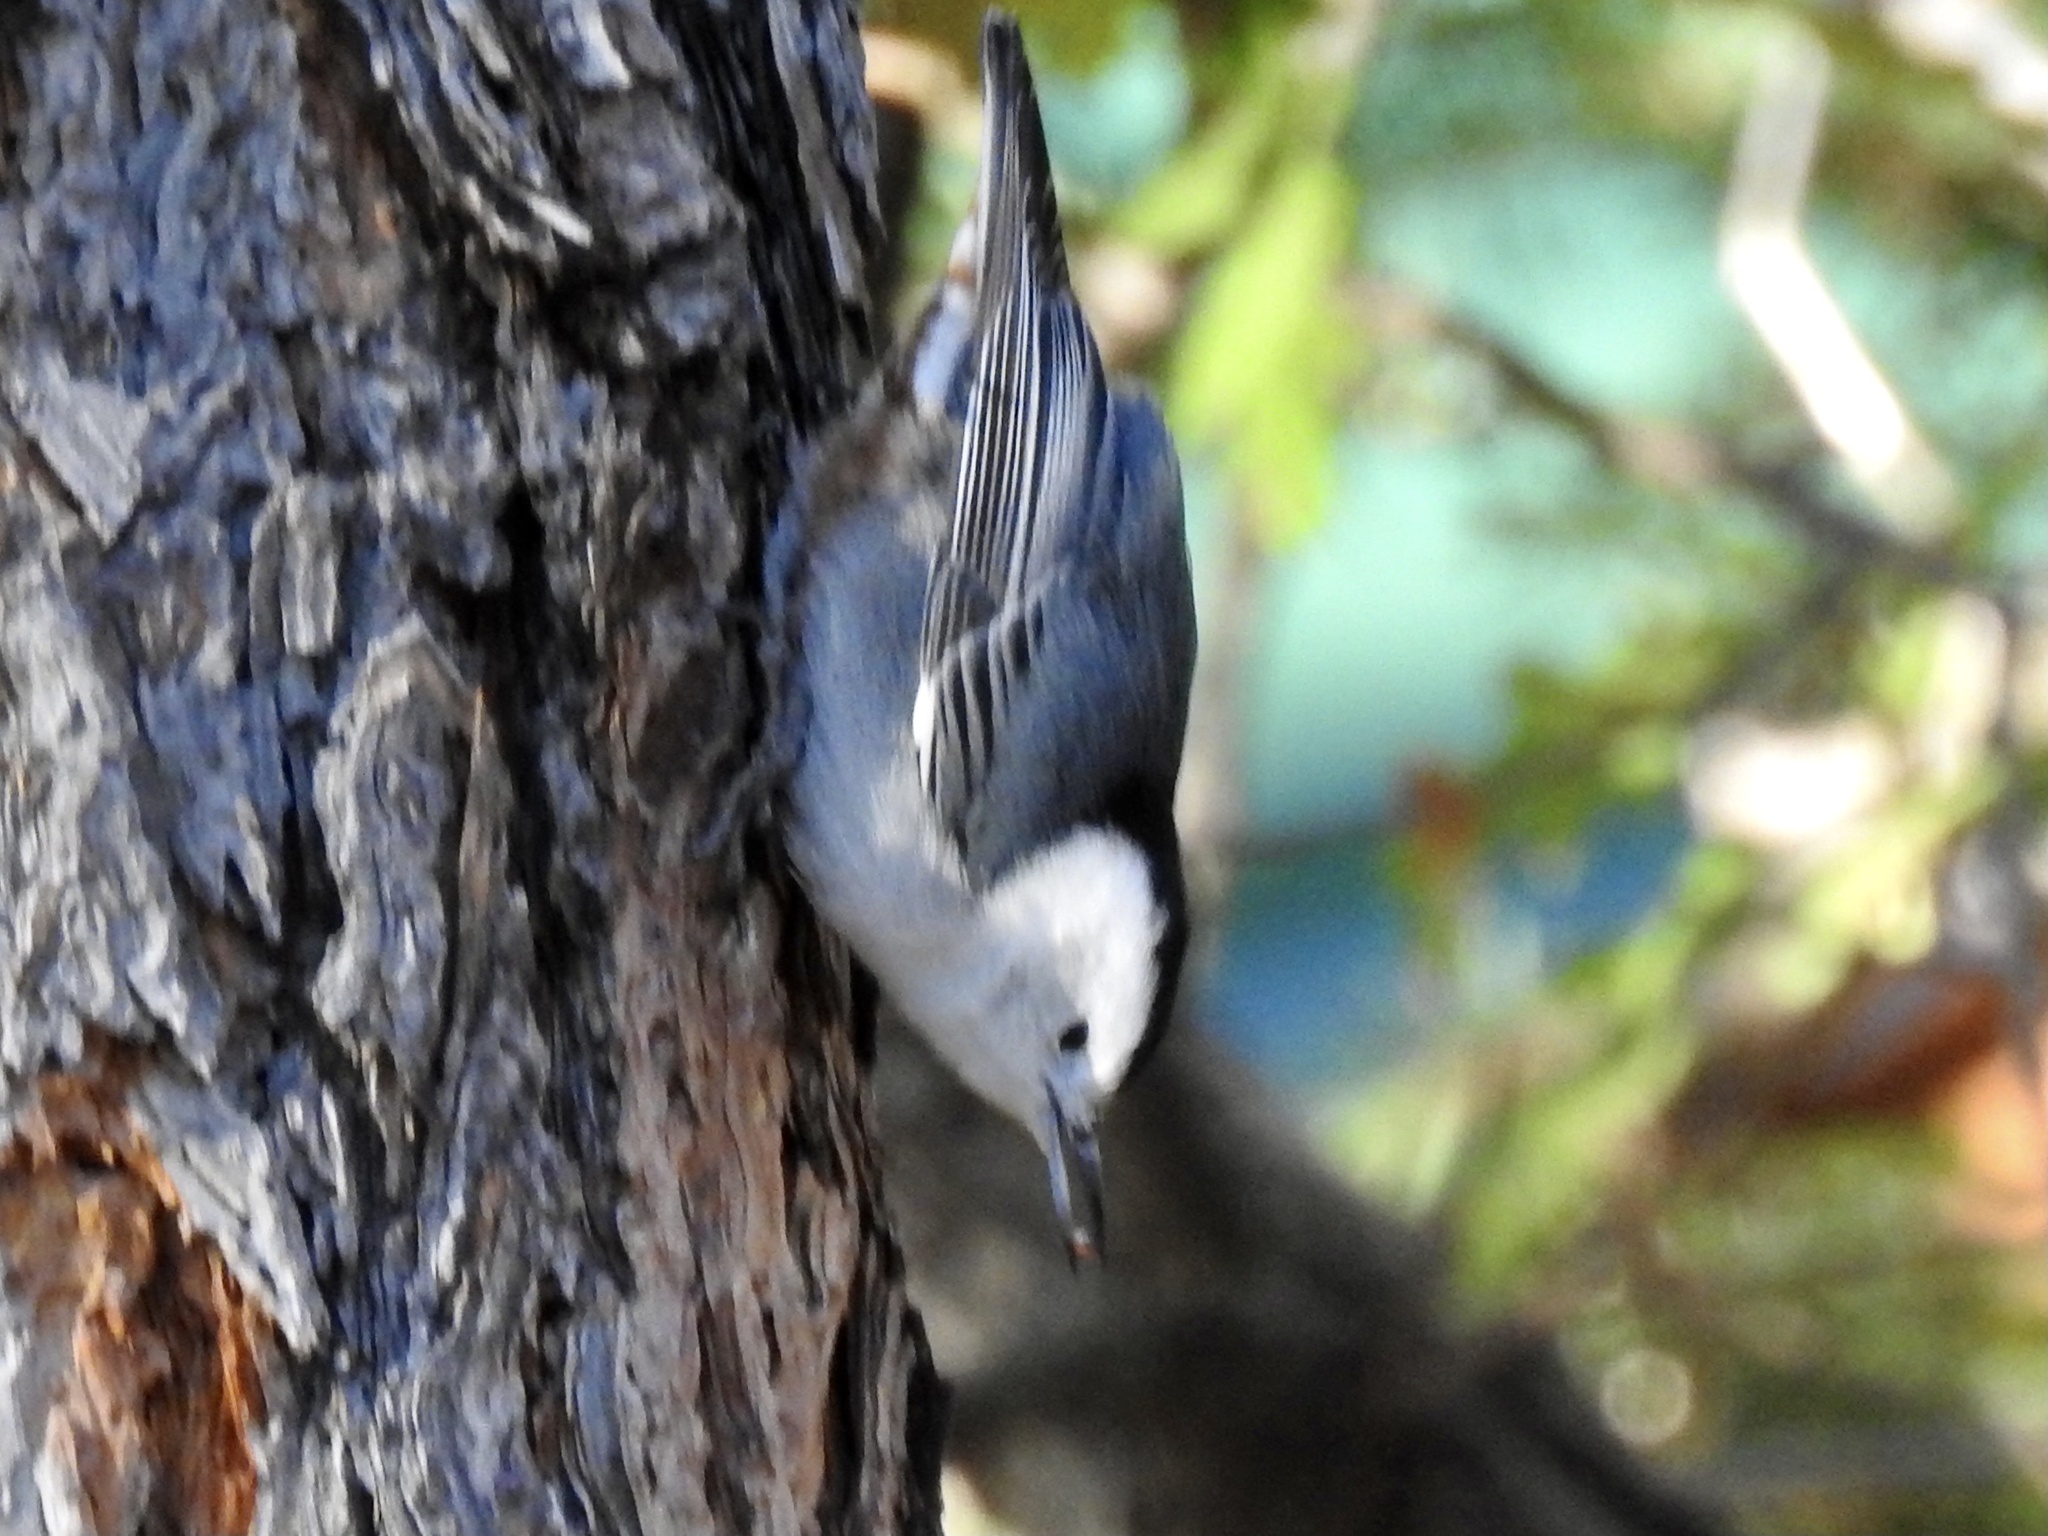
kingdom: Animalia
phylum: Chordata
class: Aves
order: Passeriformes
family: Sittidae
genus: Sitta
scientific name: Sitta carolinensis
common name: White-breasted nuthatch
